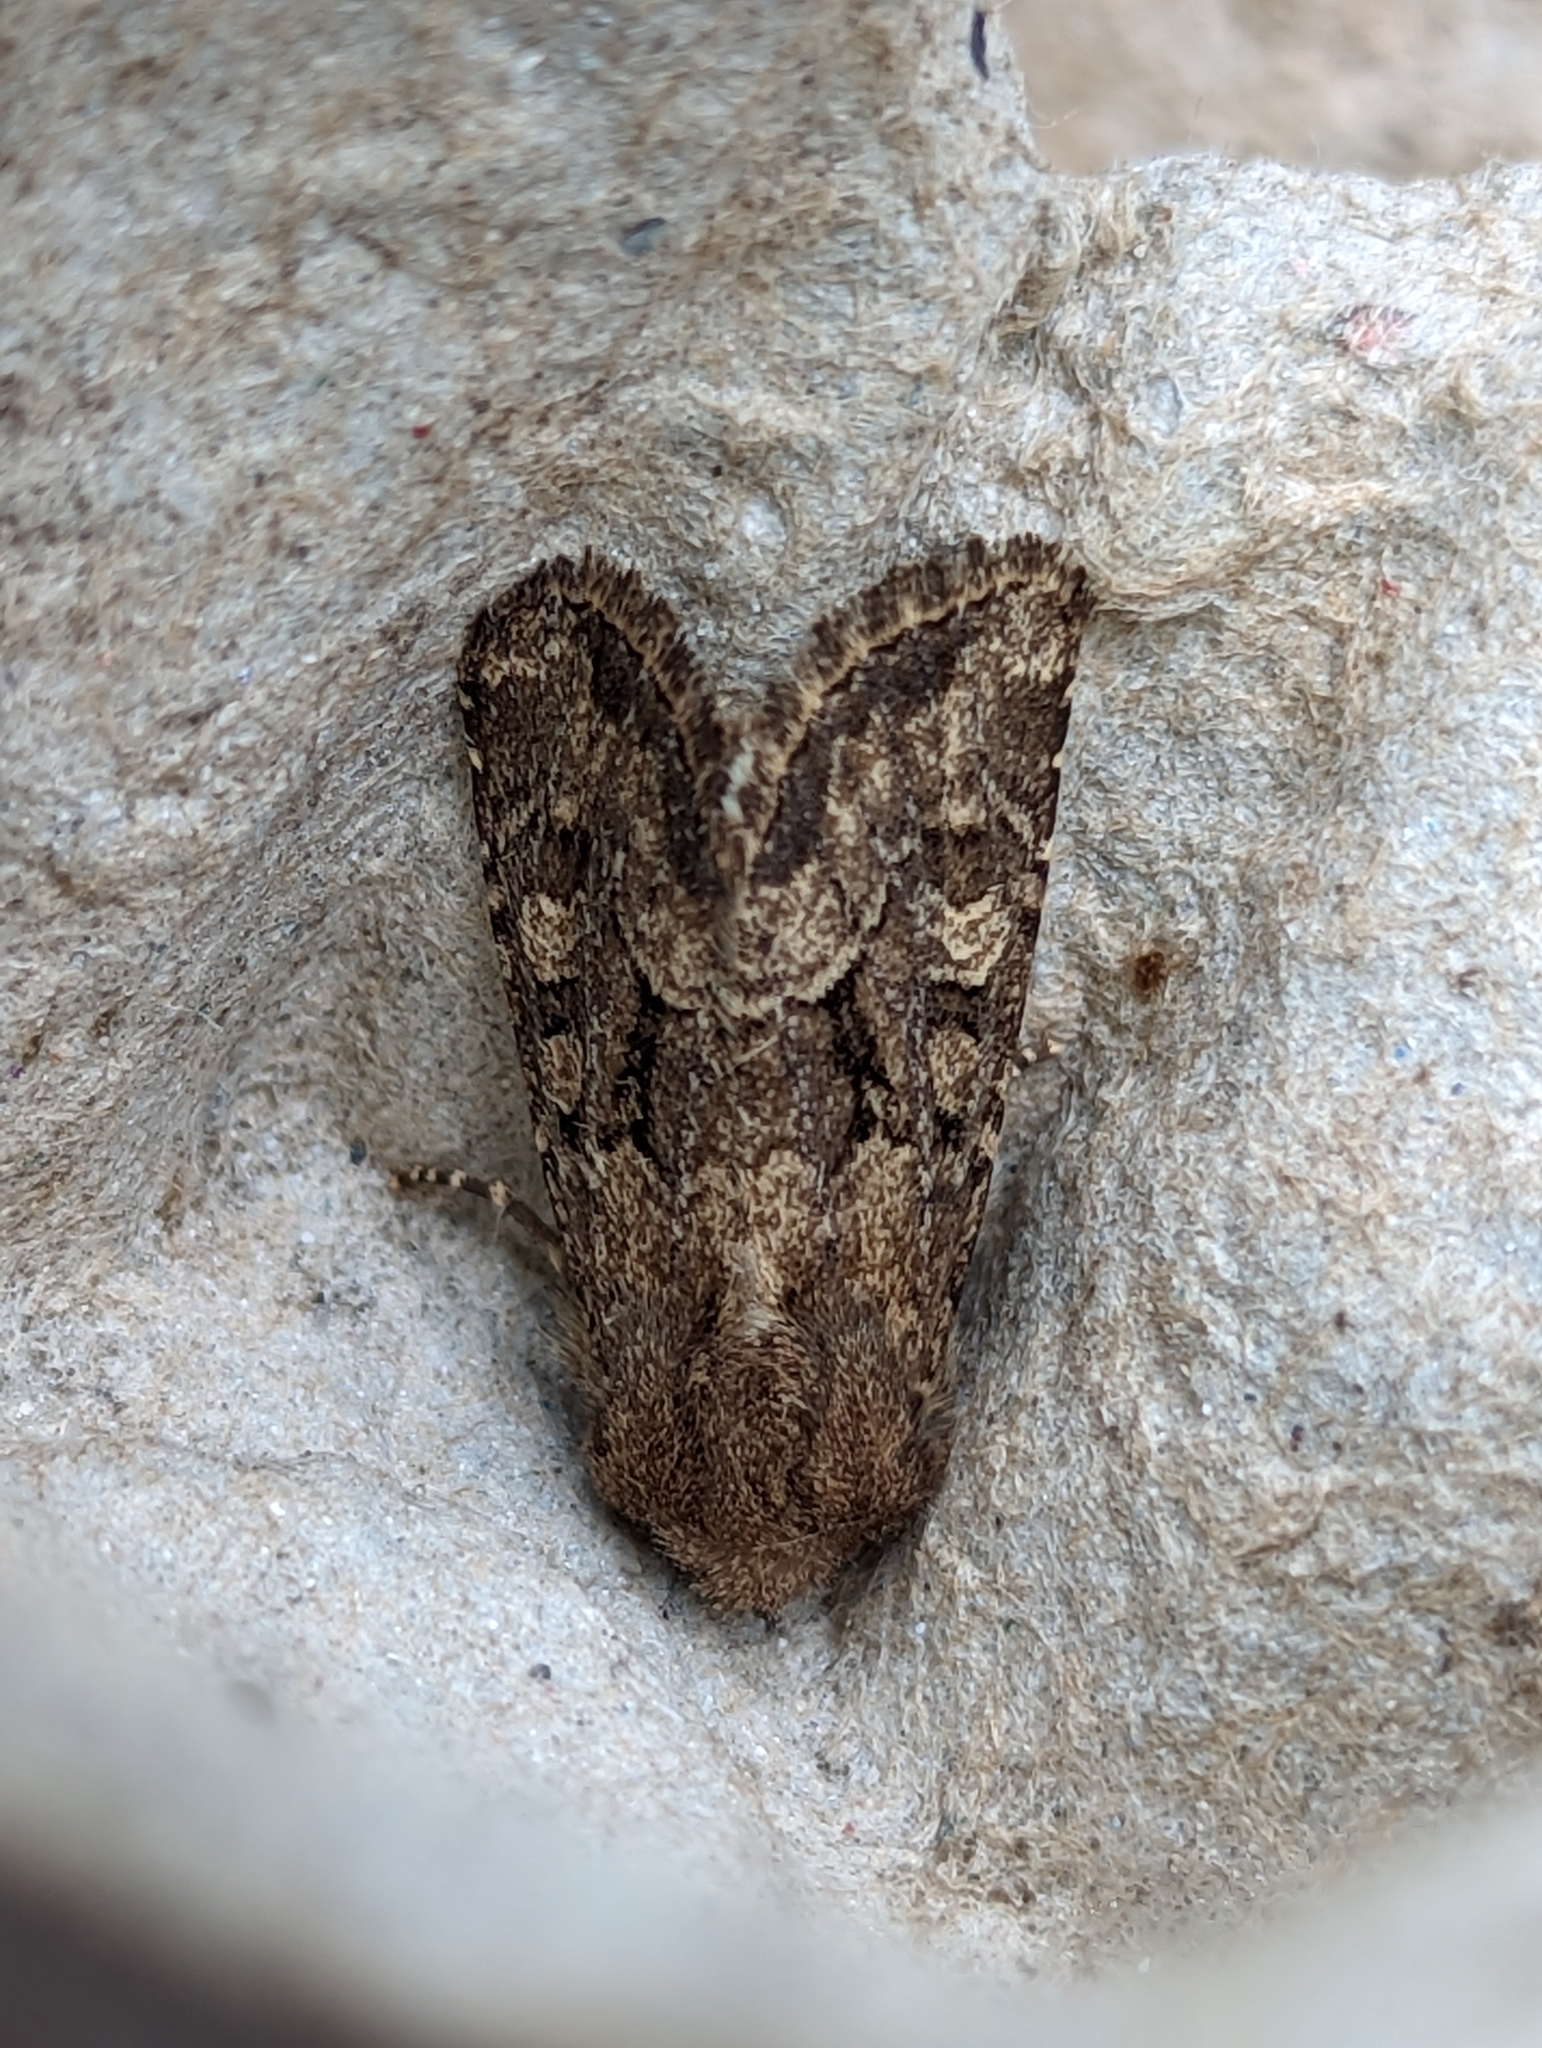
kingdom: Animalia
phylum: Arthropoda
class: Insecta
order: Lepidoptera
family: Noctuidae
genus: Luperina
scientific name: Luperina testacea
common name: Flounced rustic
